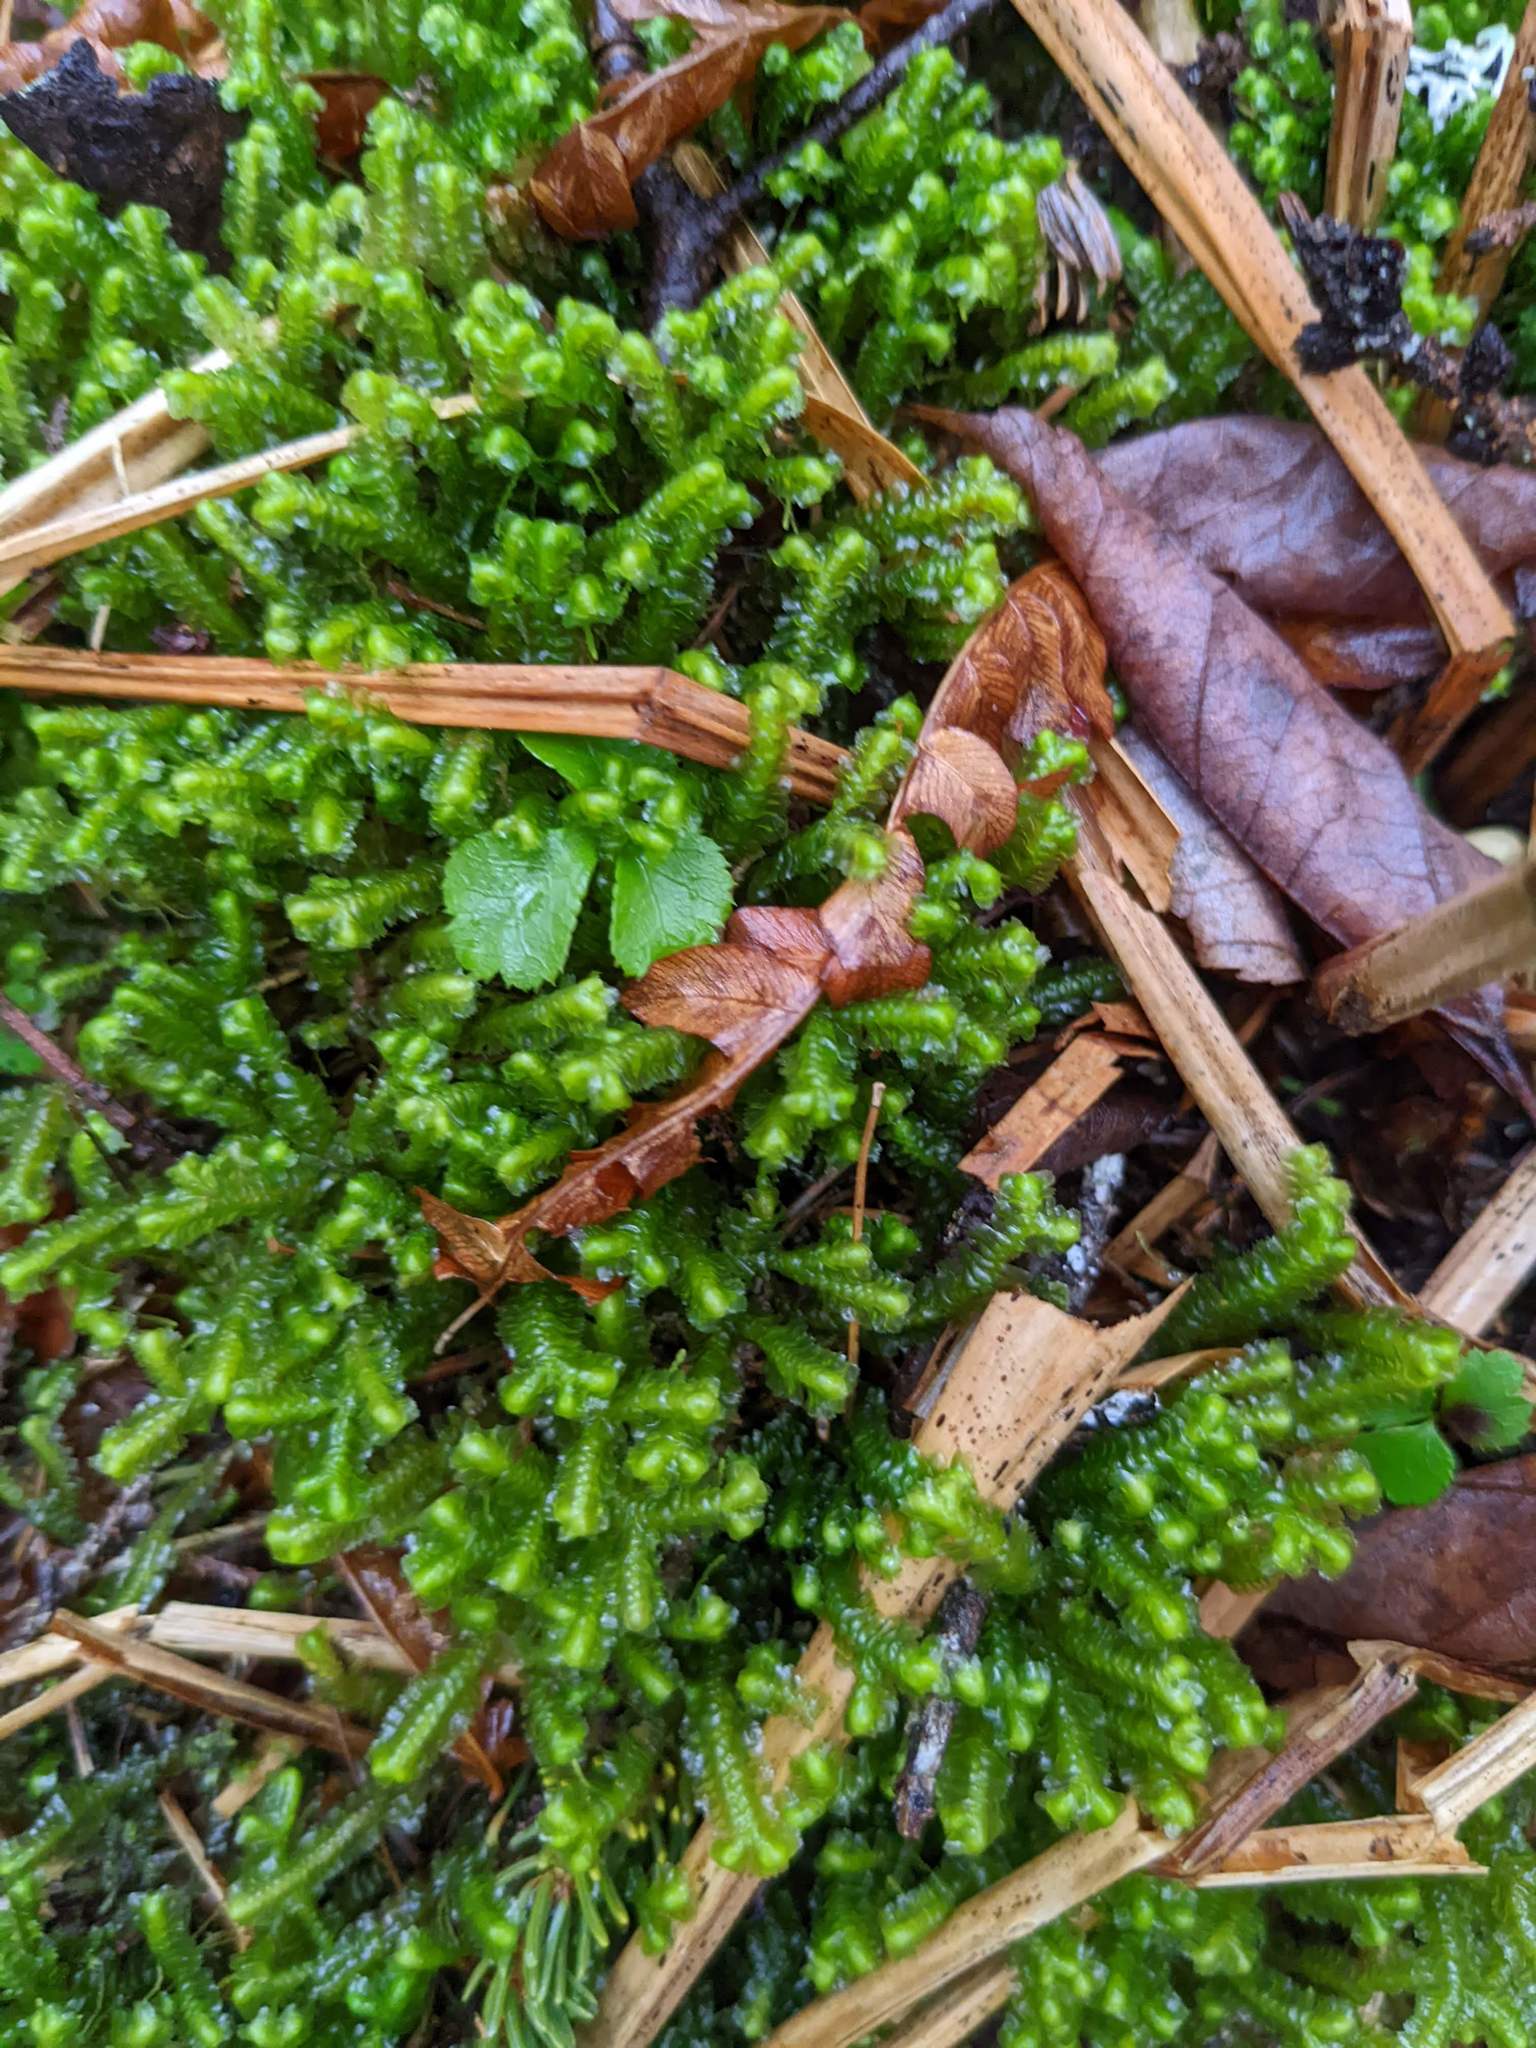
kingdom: Plantae
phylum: Marchantiophyta
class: Jungermanniopsida
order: Jungermanniales
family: Lepidoziaceae
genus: Bazzania
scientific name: Bazzania trilobata
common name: Three-lobed whipwort
